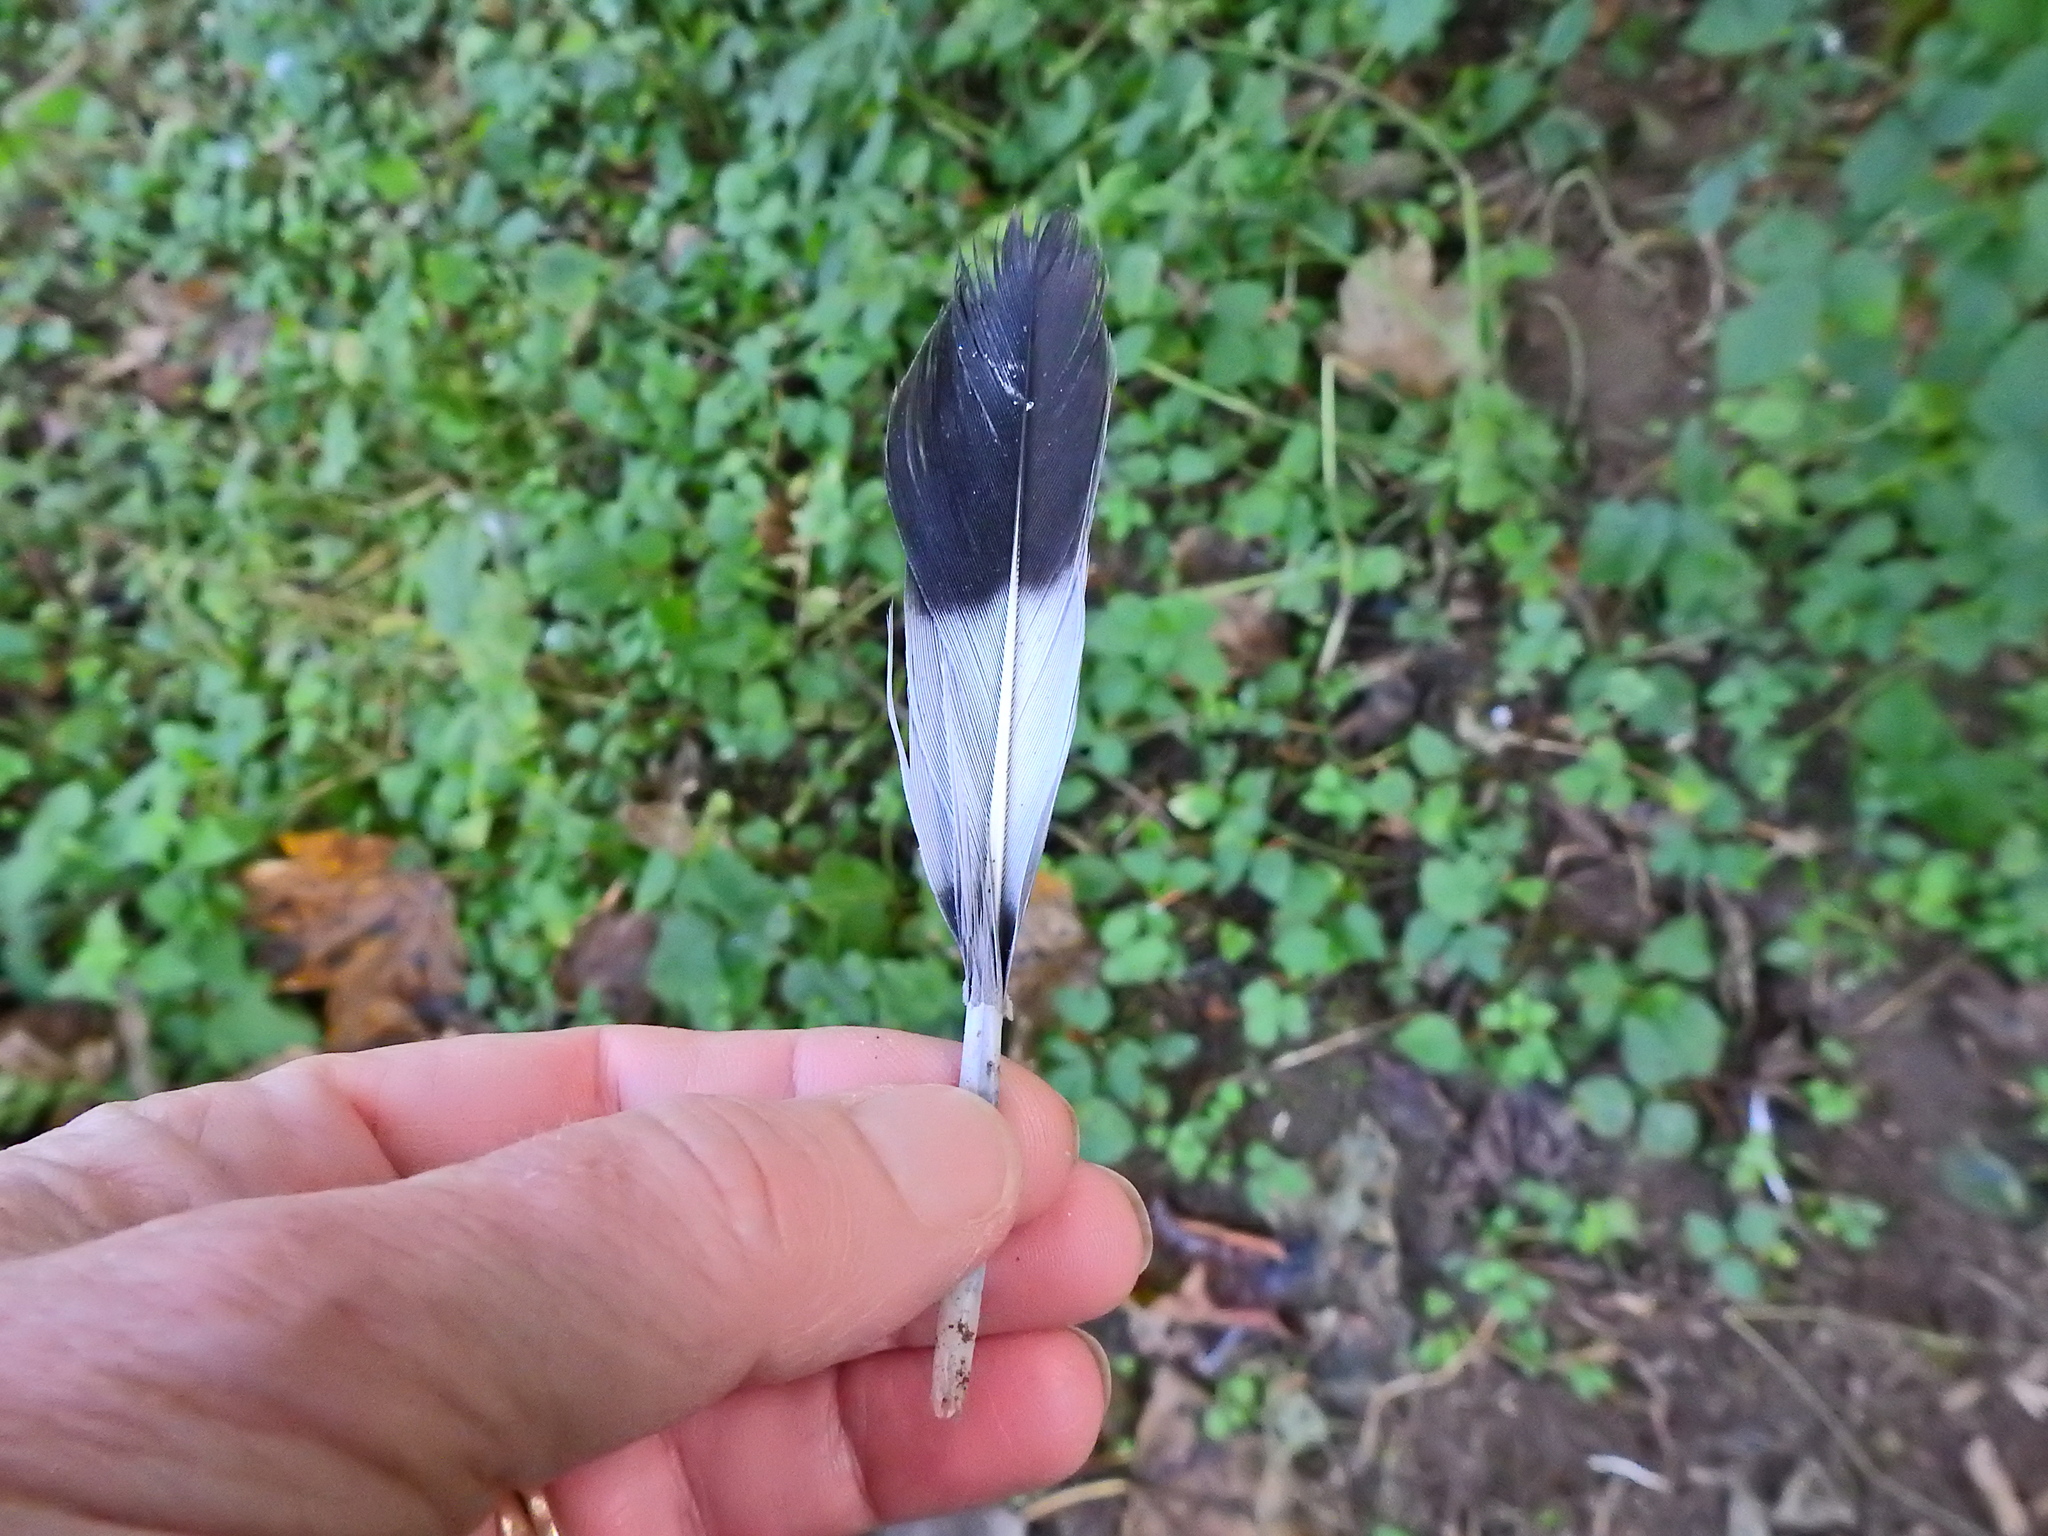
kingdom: Animalia
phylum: Chordata
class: Aves
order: Columbiformes
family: Columbidae
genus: Columba
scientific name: Columba palumbus
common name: Common wood pigeon
